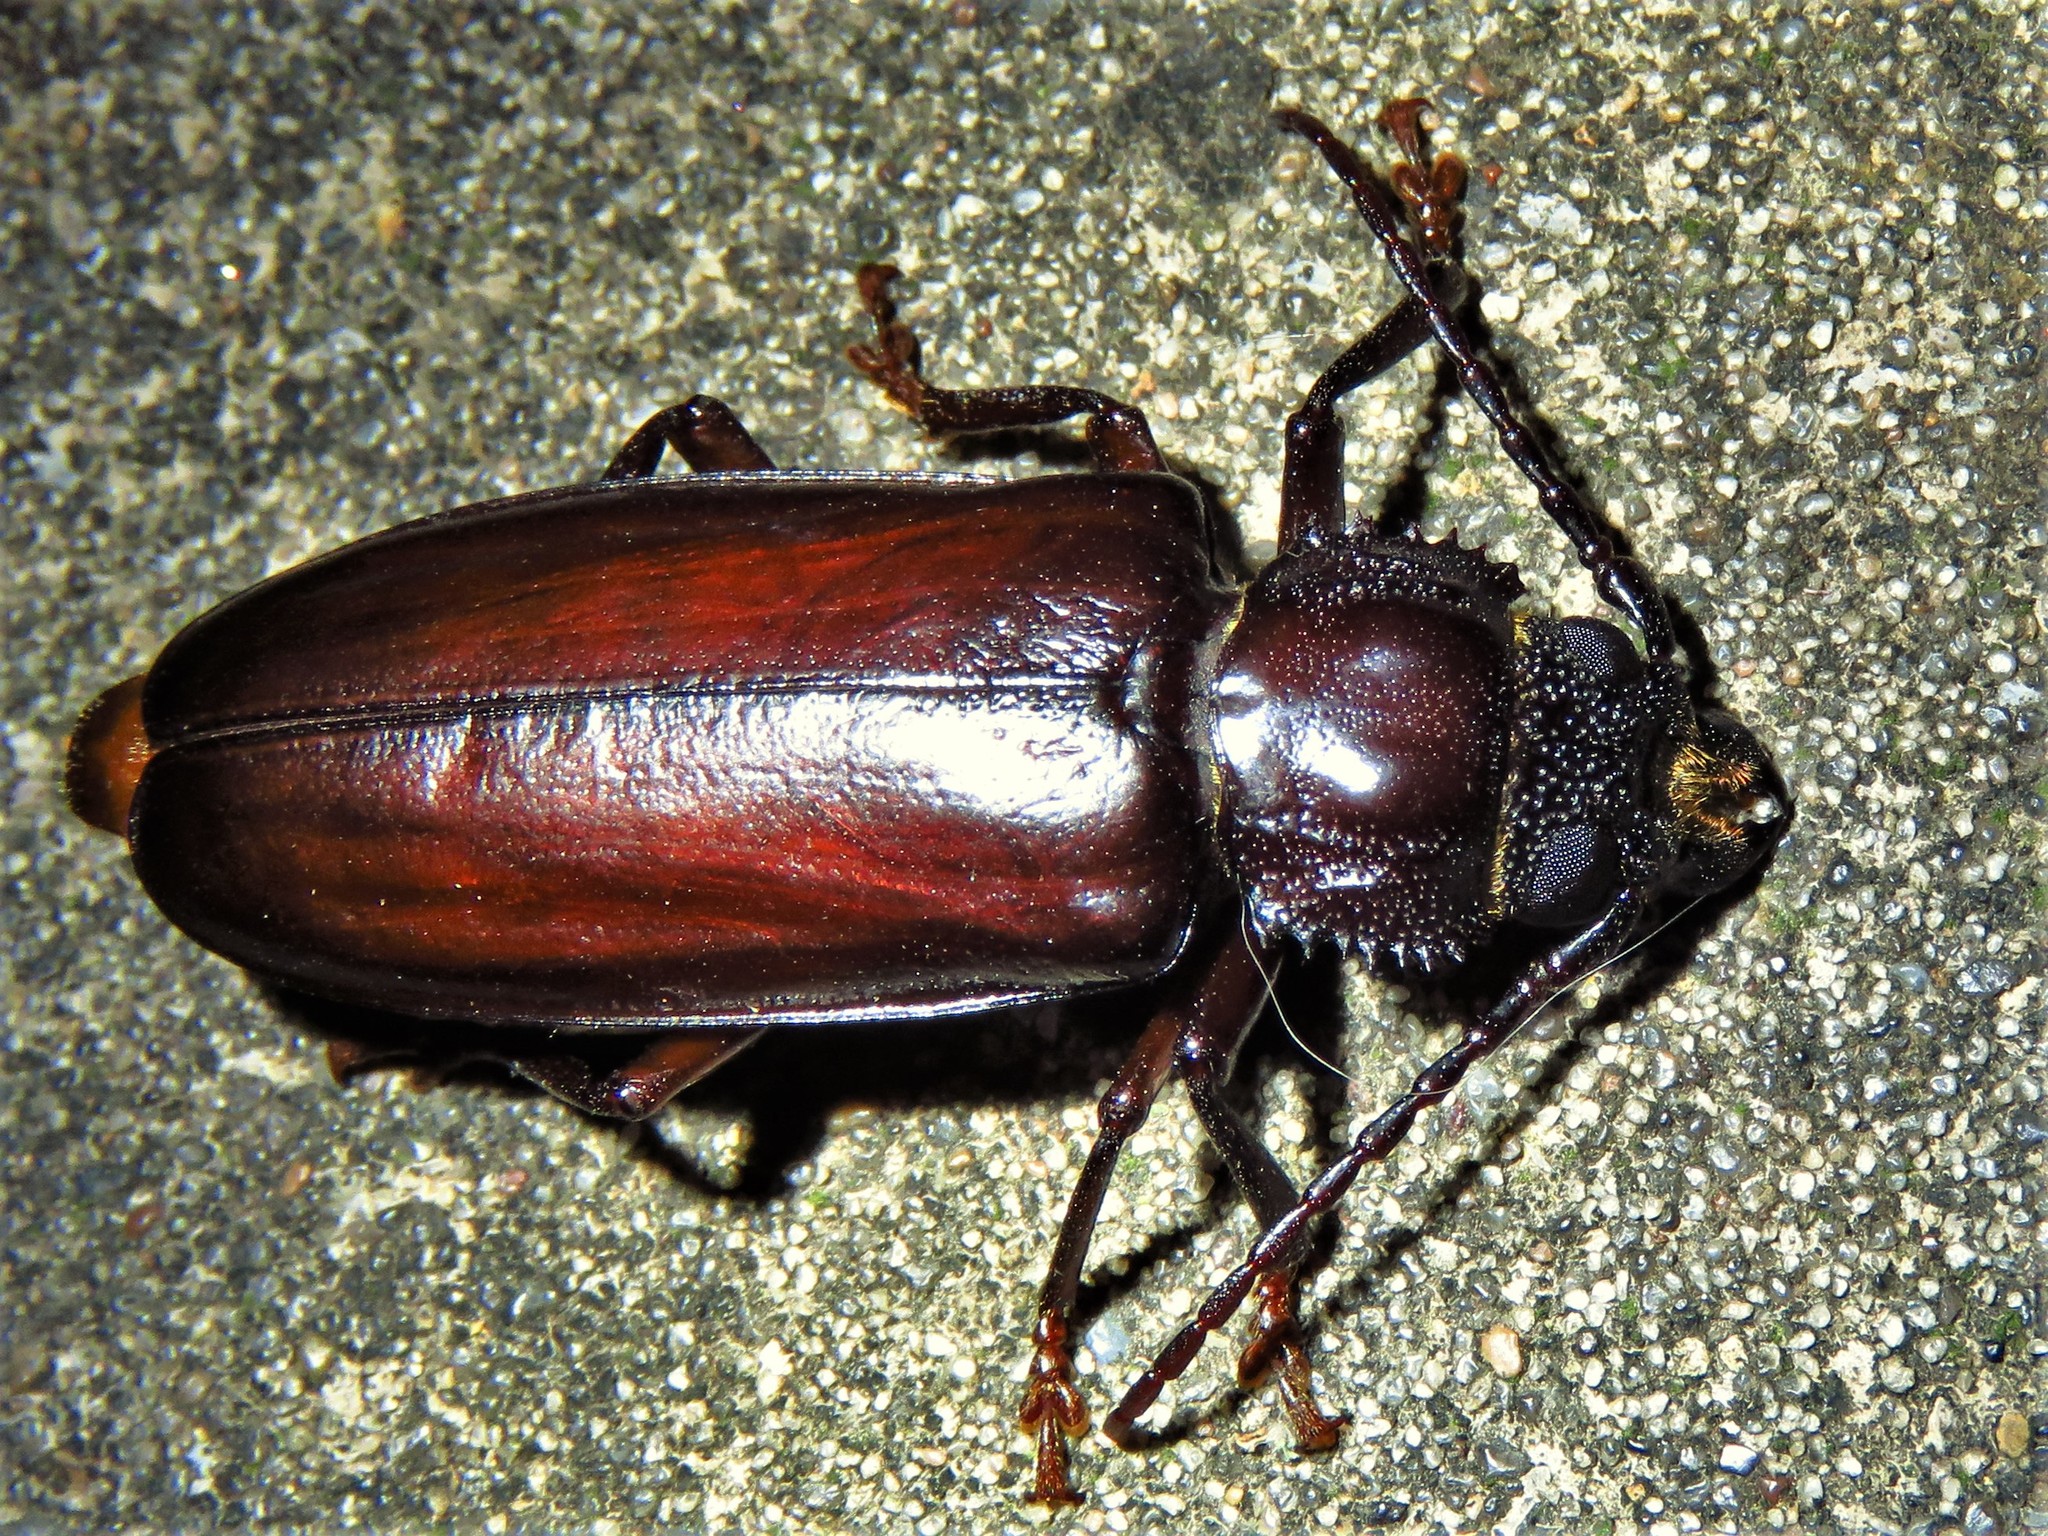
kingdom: Animalia
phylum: Arthropoda
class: Insecta
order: Coleoptera
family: Cerambycidae
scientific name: Cerambycidae
